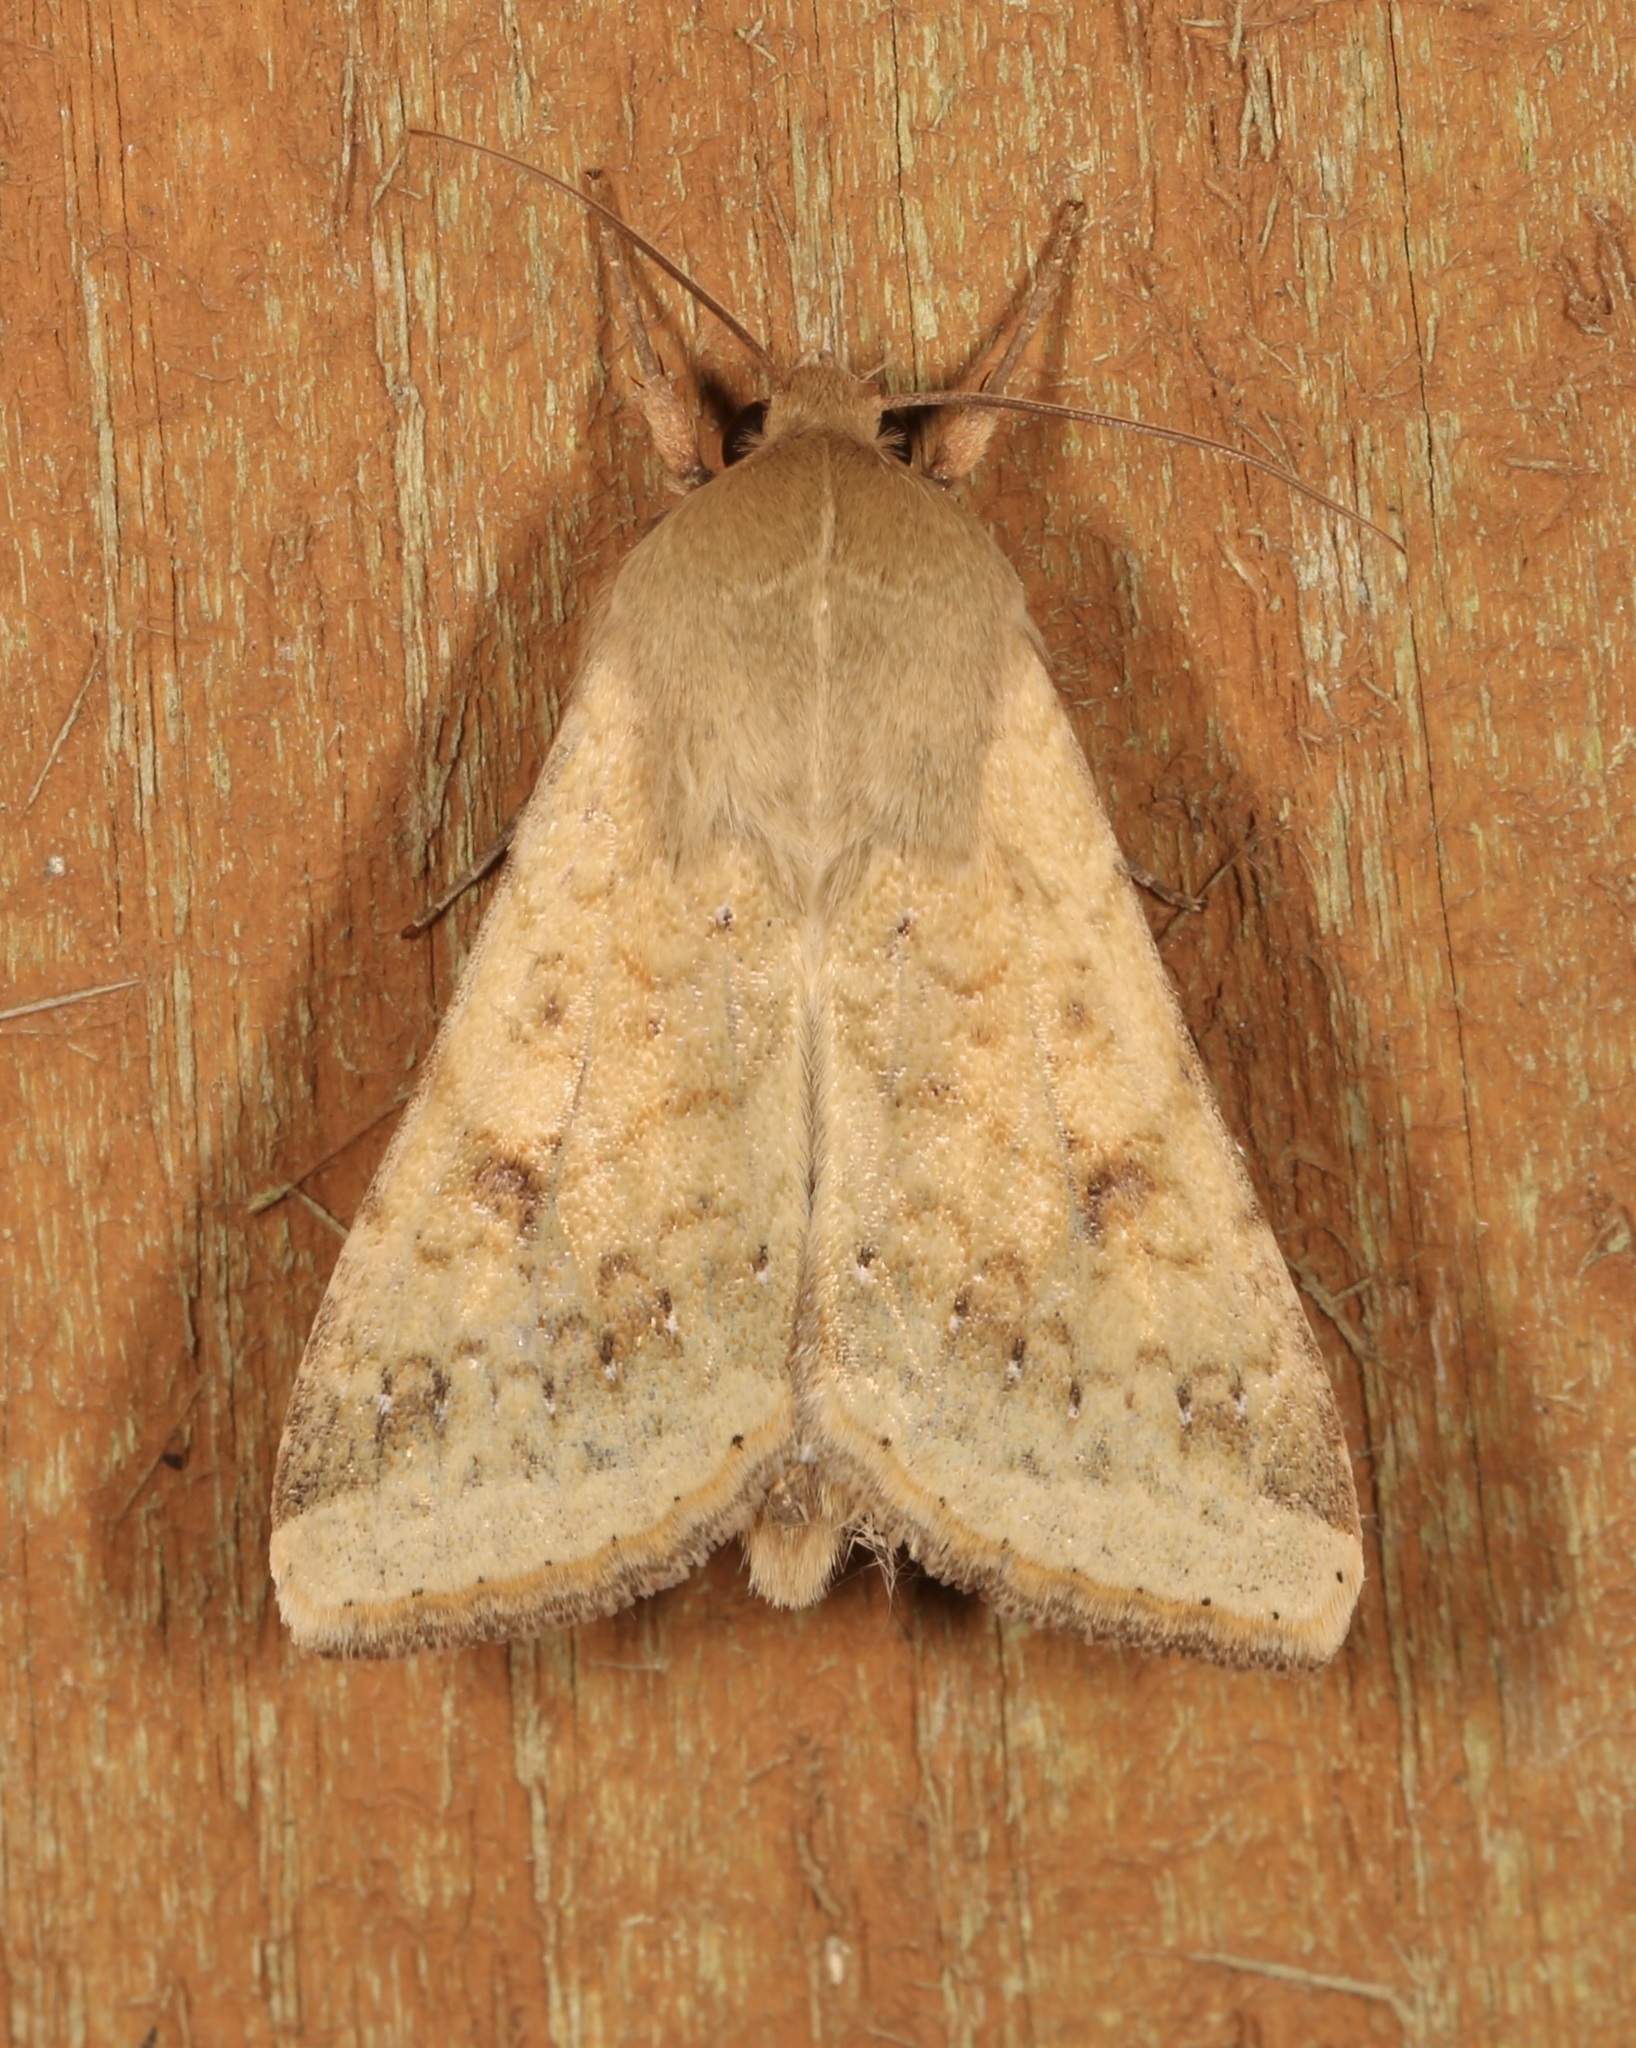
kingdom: Animalia
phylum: Arthropoda
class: Insecta
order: Lepidoptera
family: Noctuidae
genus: Helicoverpa
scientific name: Helicoverpa zea
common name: Bollworm
